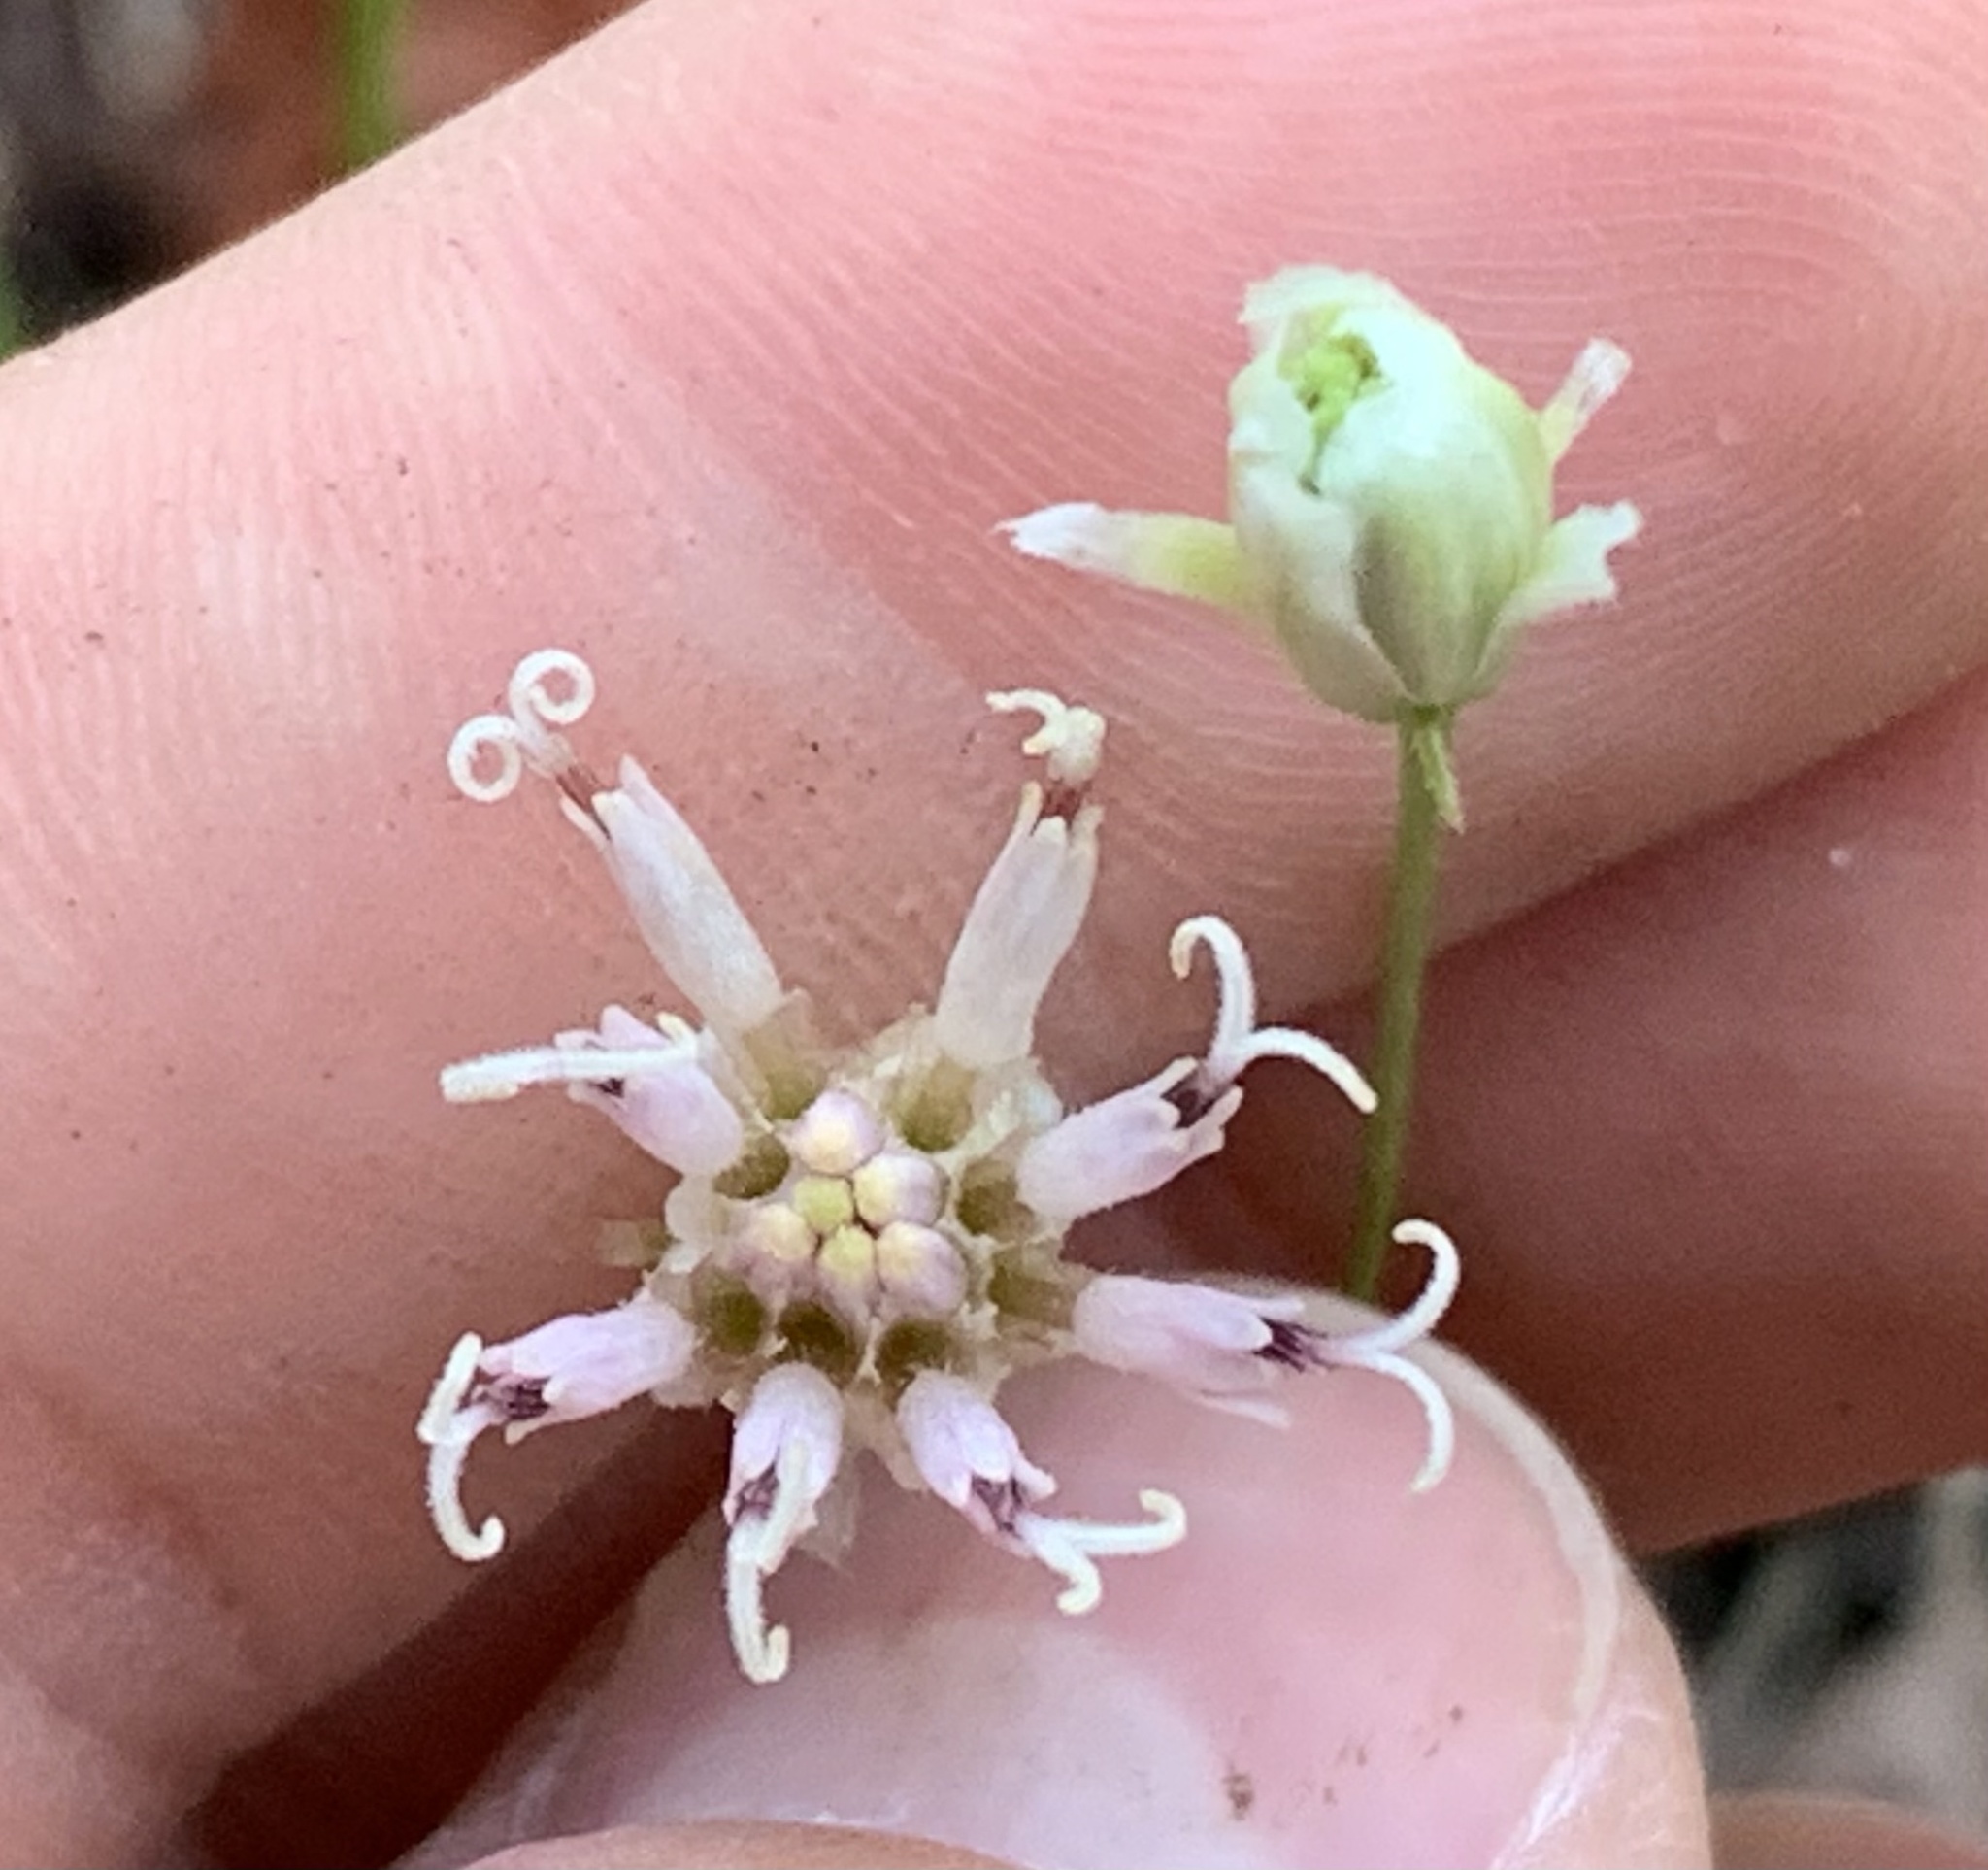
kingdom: Plantae
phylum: Tracheophyta
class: Magnoliopsida
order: Asterales
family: Asteraceae
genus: Palafoxia
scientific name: Palafoxia integrifolia
